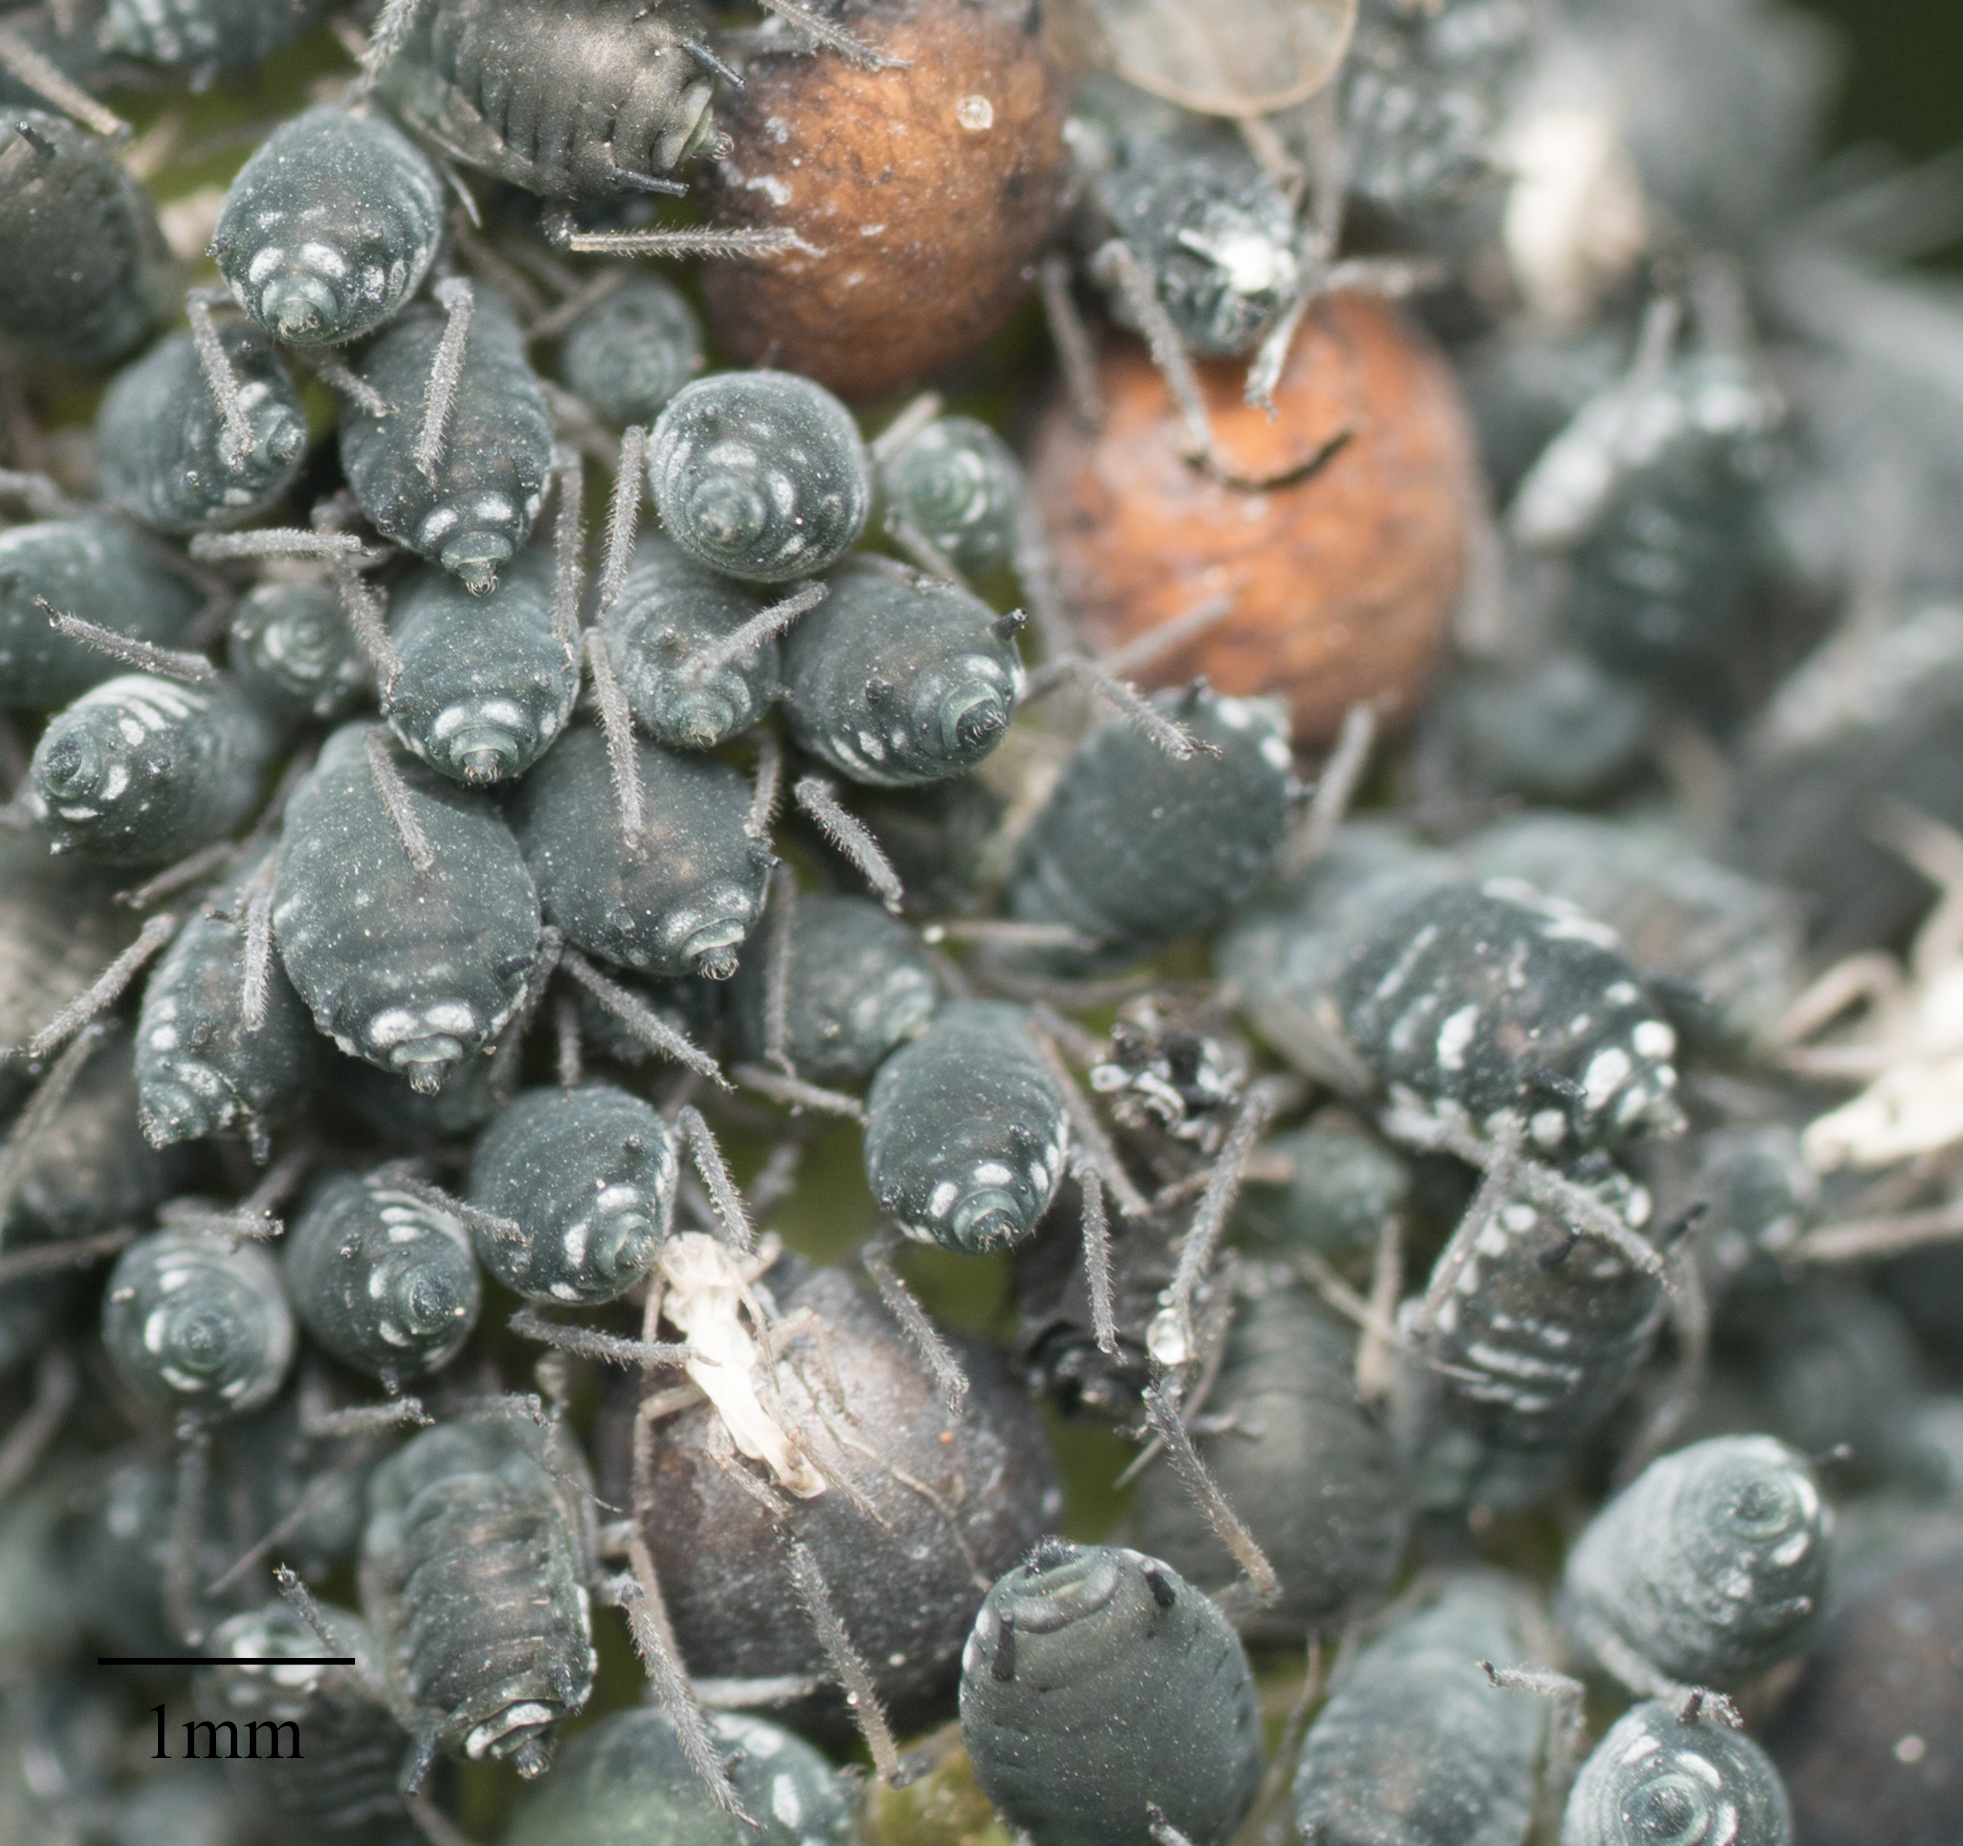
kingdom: Animalia
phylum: Arthropoda
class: Insecta
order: Hemiptera
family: Aphididae
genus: Aphis
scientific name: Aphis sambuci
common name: Elder aphid
